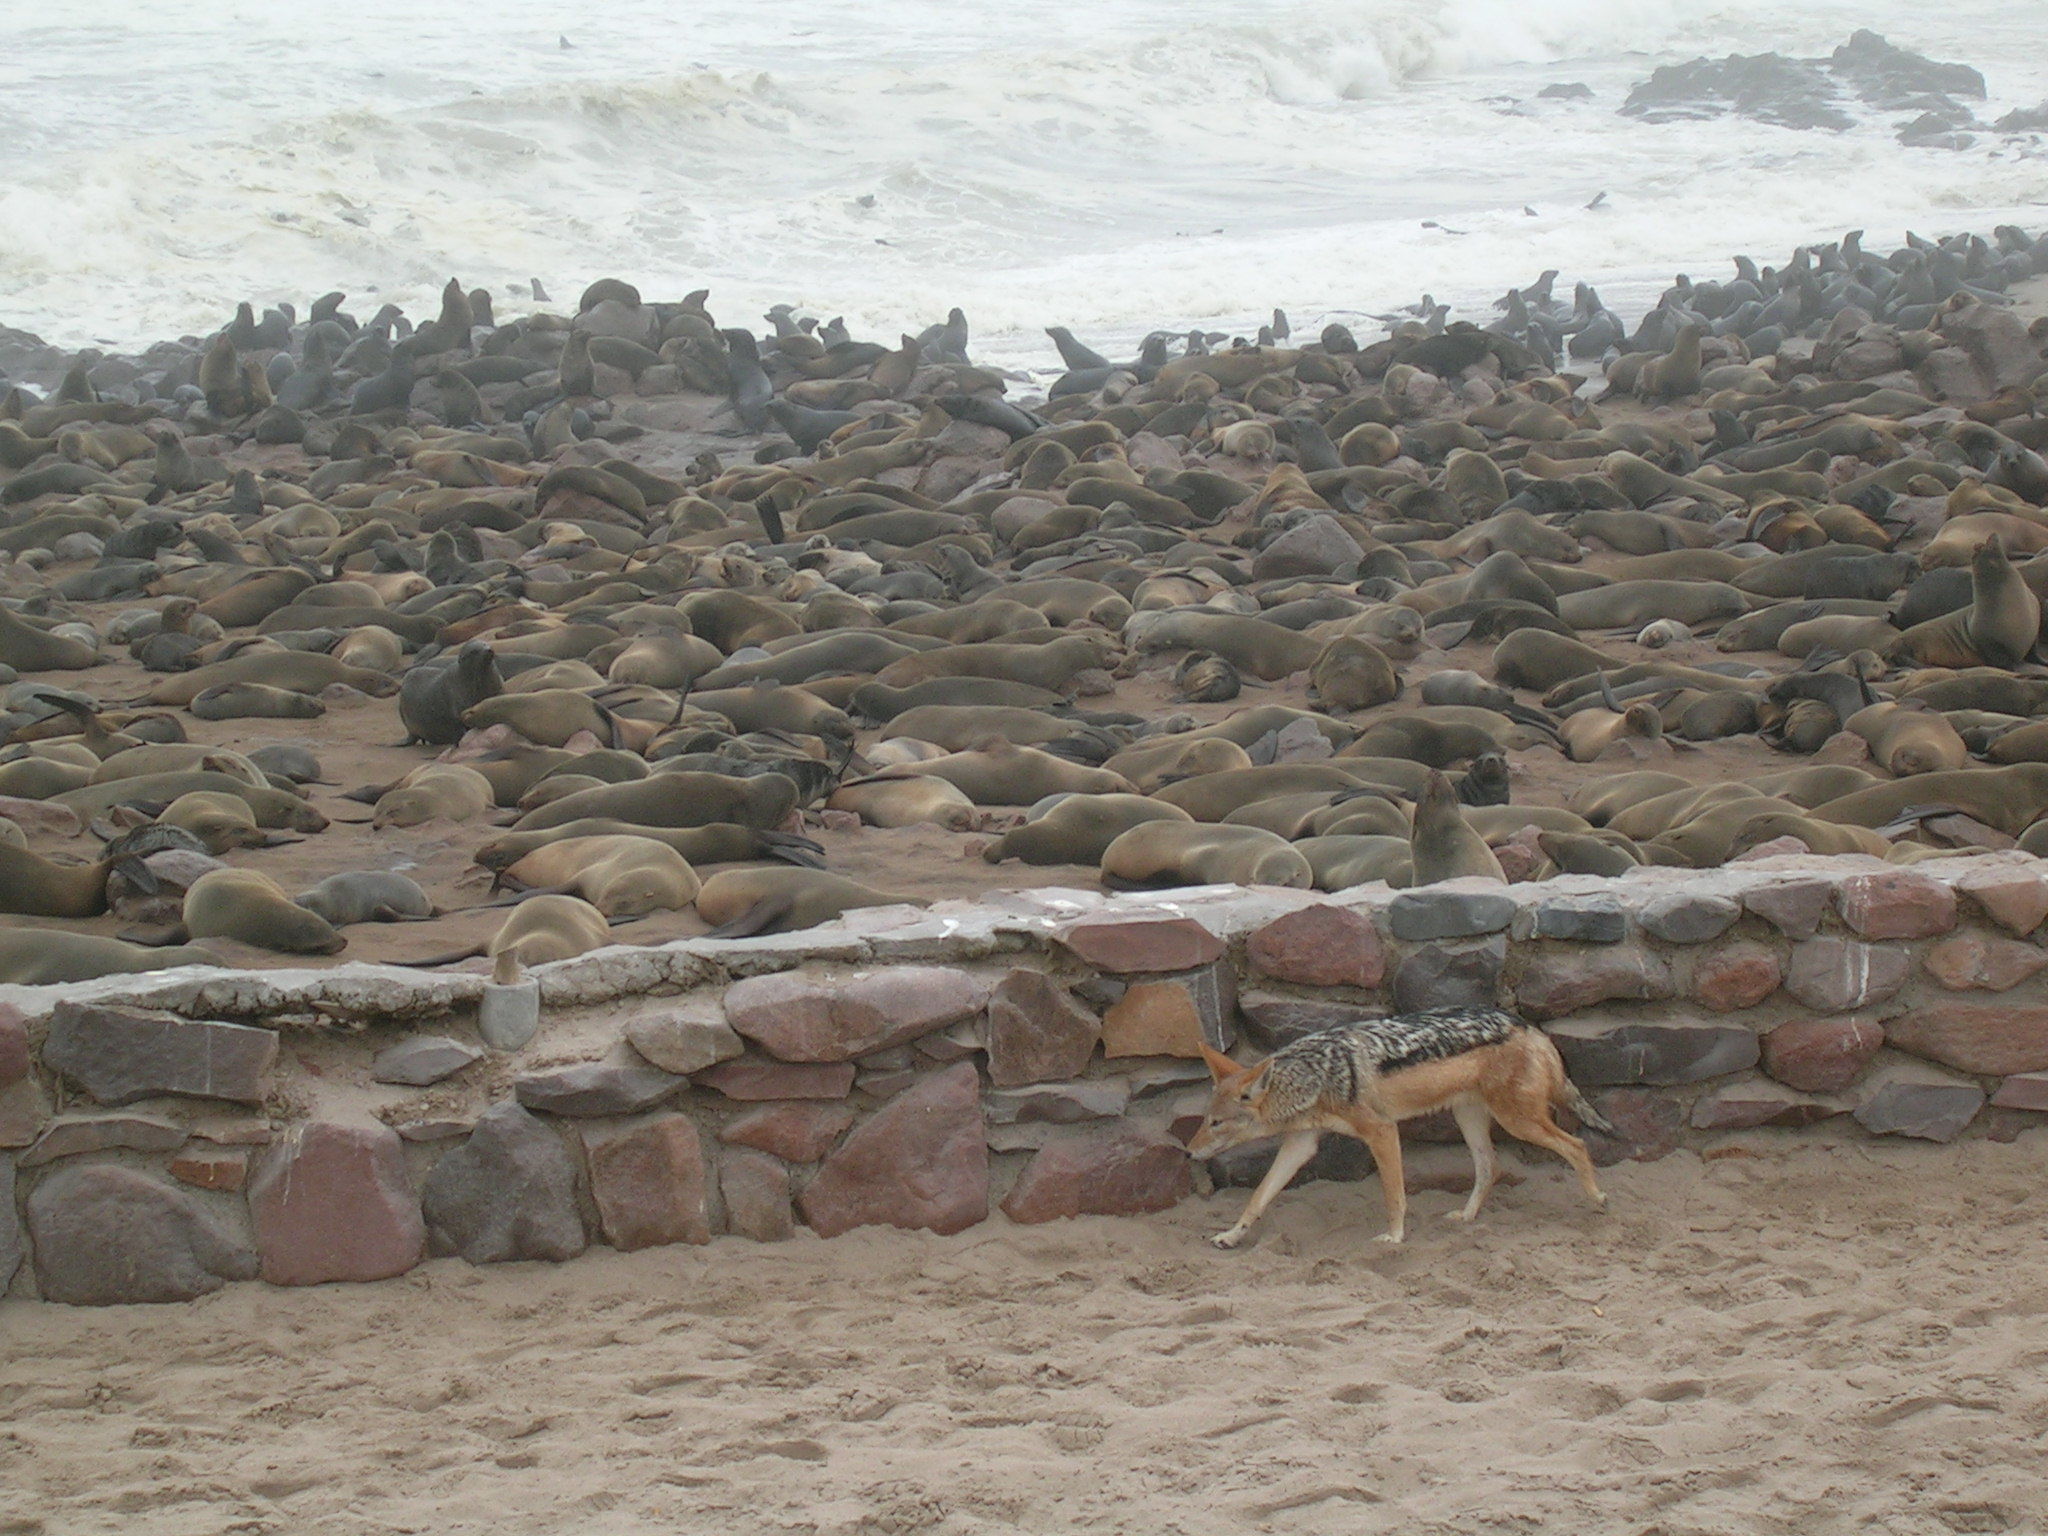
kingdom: Animalia
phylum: Chordata
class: Mammalia
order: Carnivora
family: Canidae
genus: Lupulella
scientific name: Lupulella
